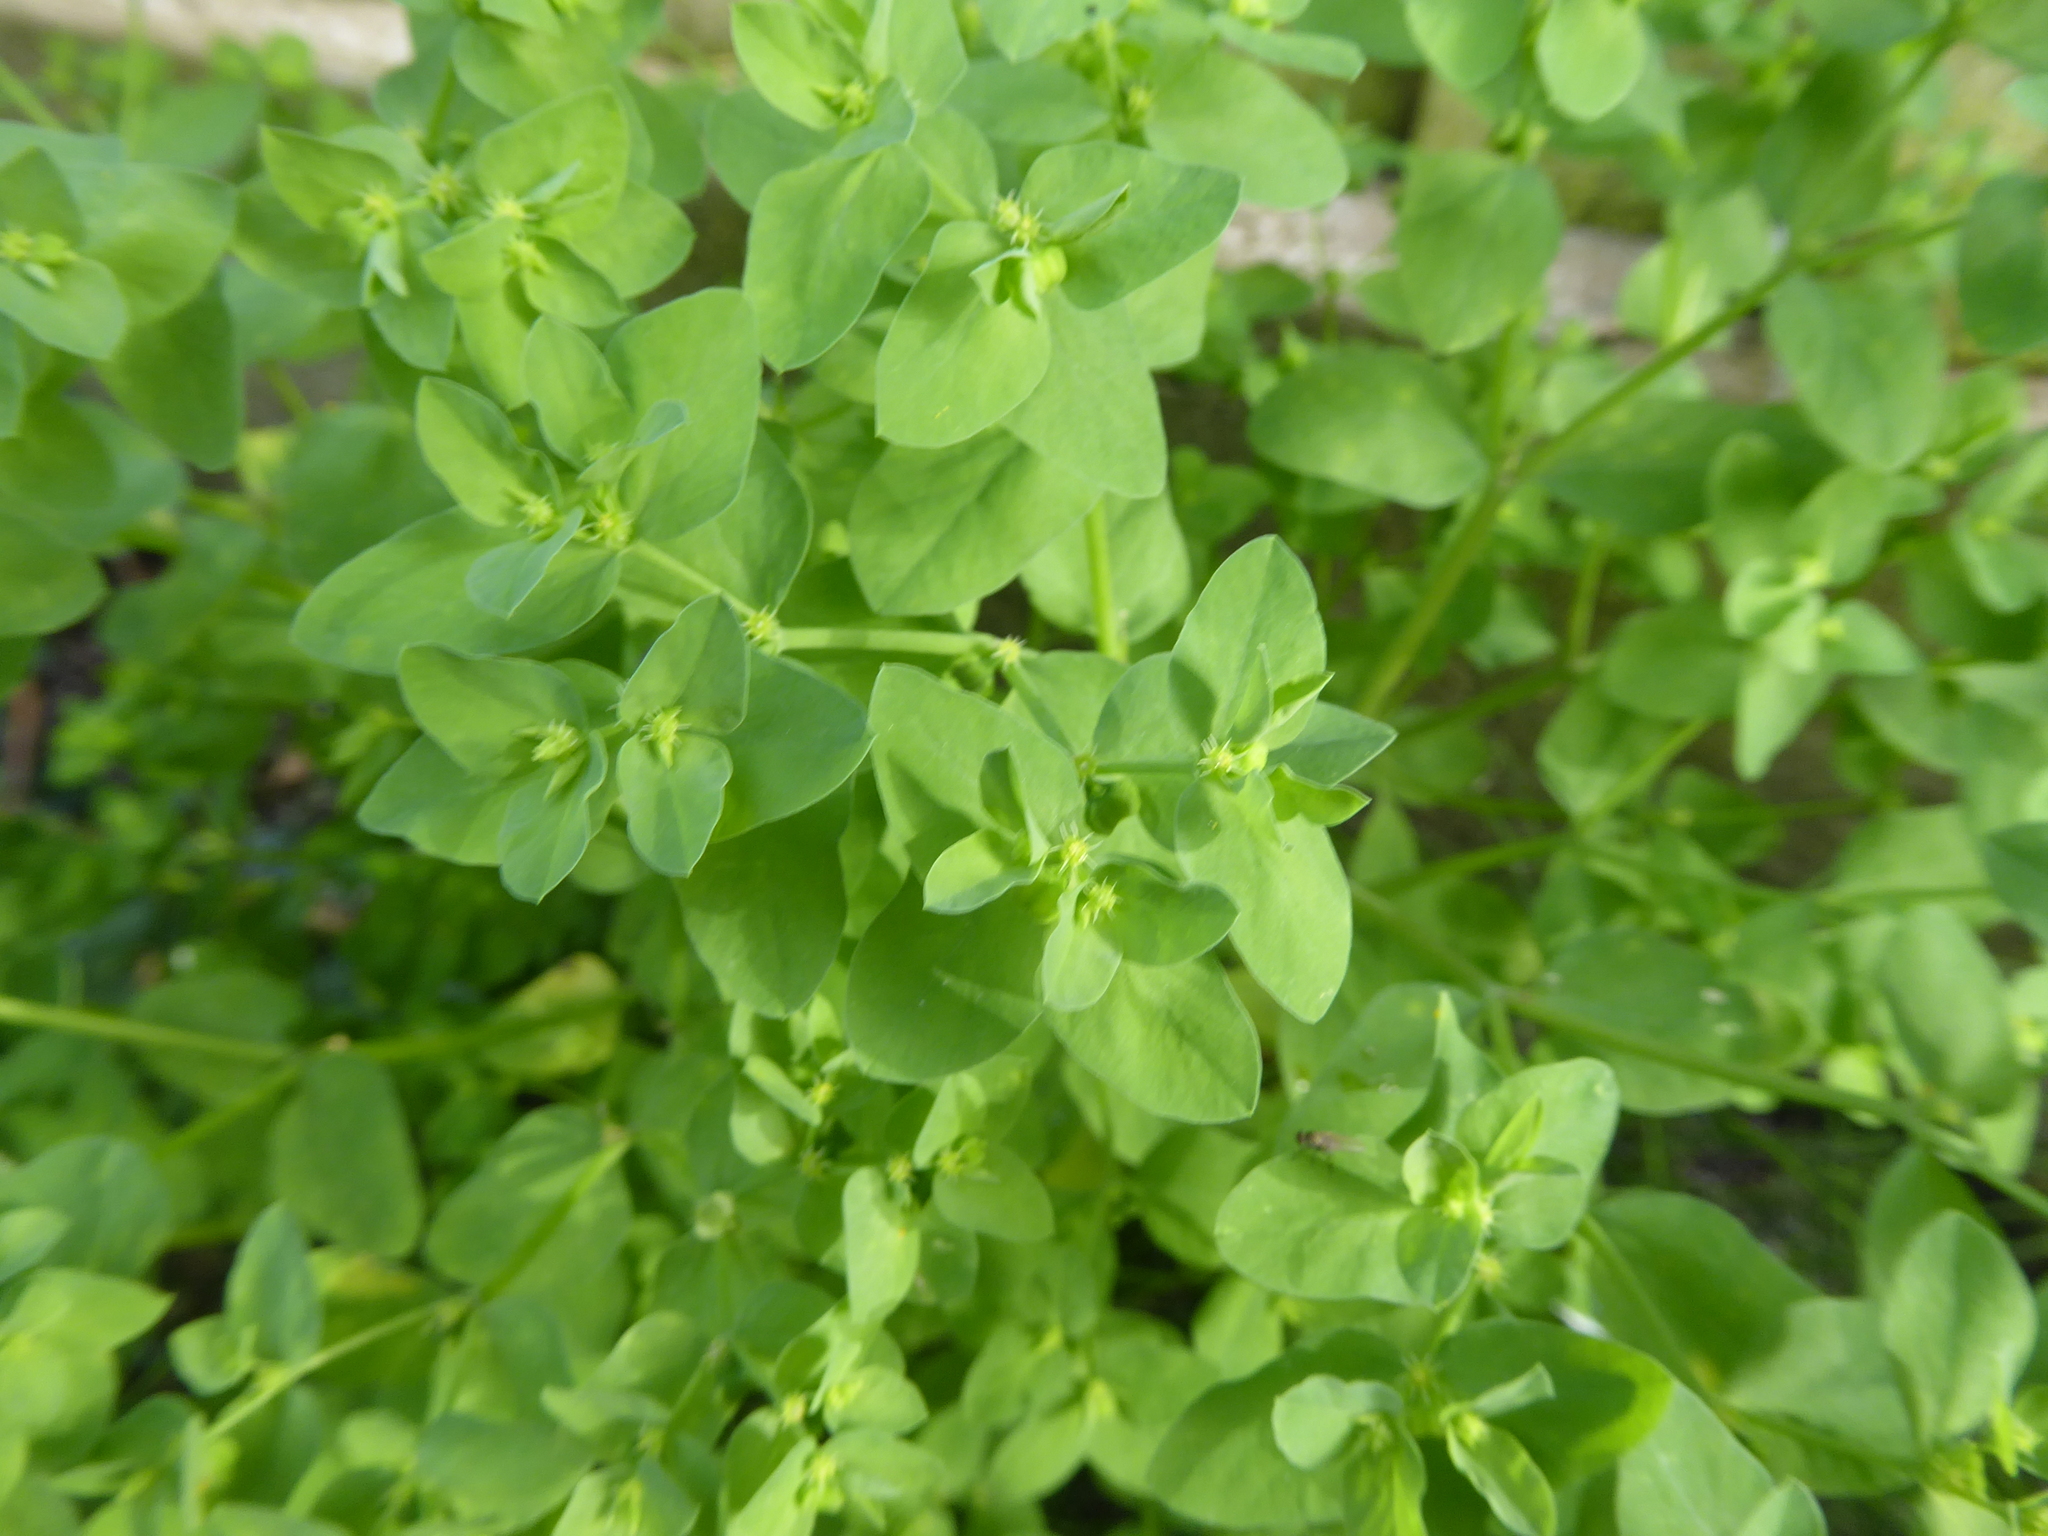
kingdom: Plantae
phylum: Tracheophyta
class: Magnoliopsida
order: Malpighiales
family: Euphorbiaceae
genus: Euphorbia
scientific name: Euphorbia peplus
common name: Petty spurge
